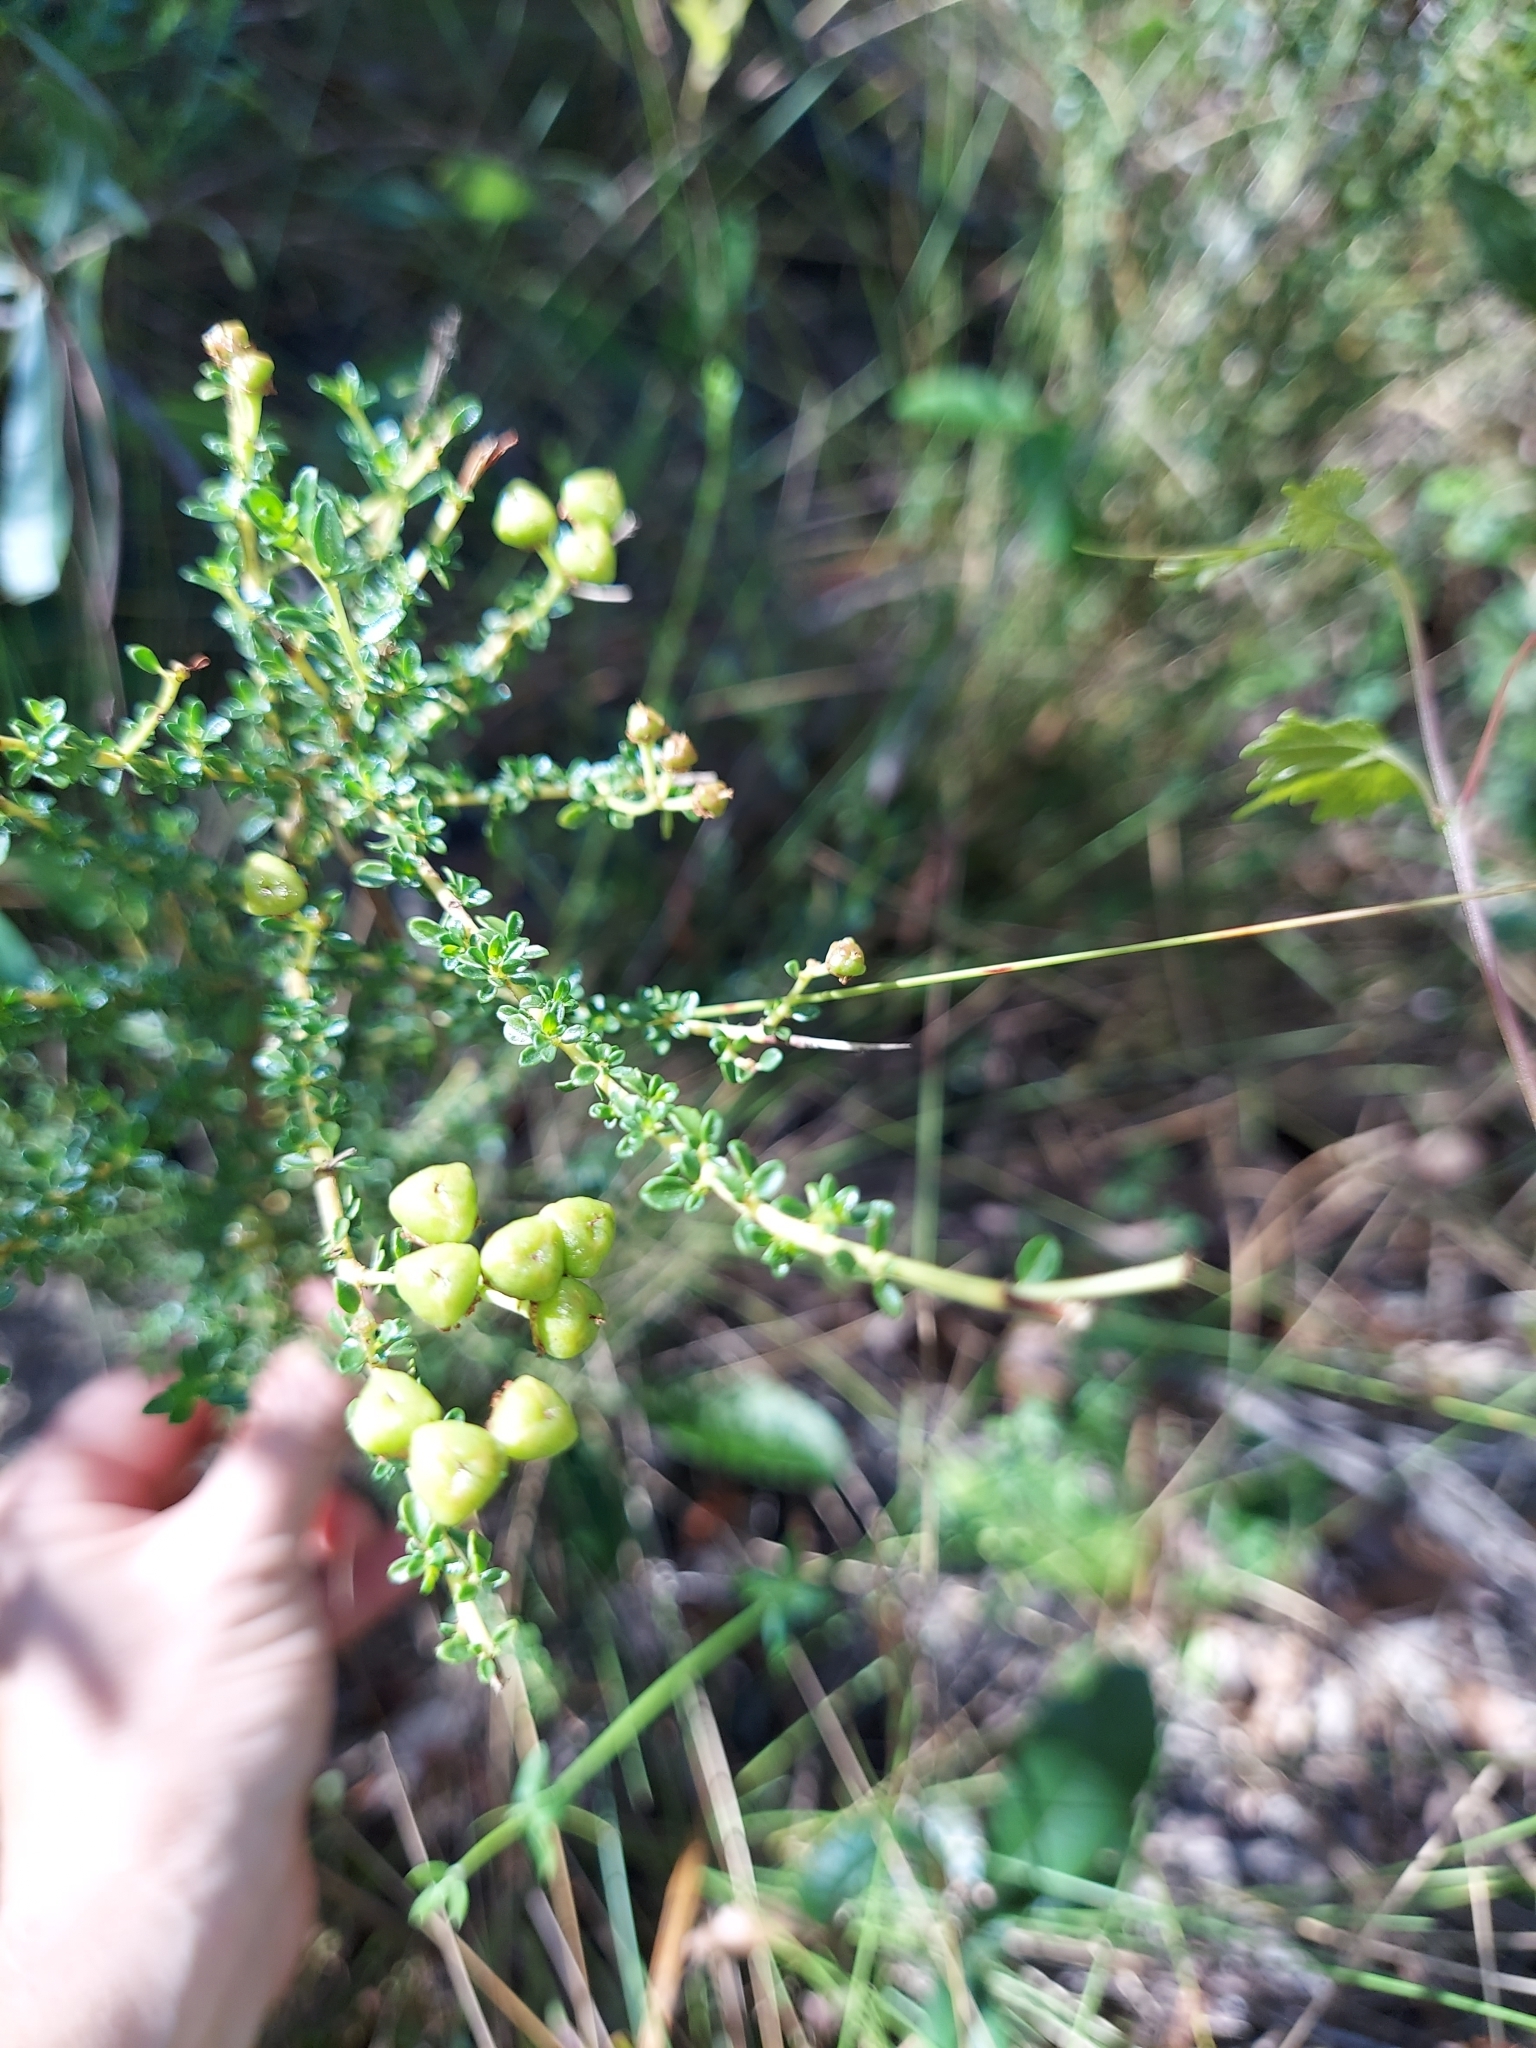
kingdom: Plantae
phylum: Tracheophyta
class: Magnoliopsida
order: Rosales
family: Rhamnaceae
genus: Ceanothus
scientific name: Ceanothus microphyllus
